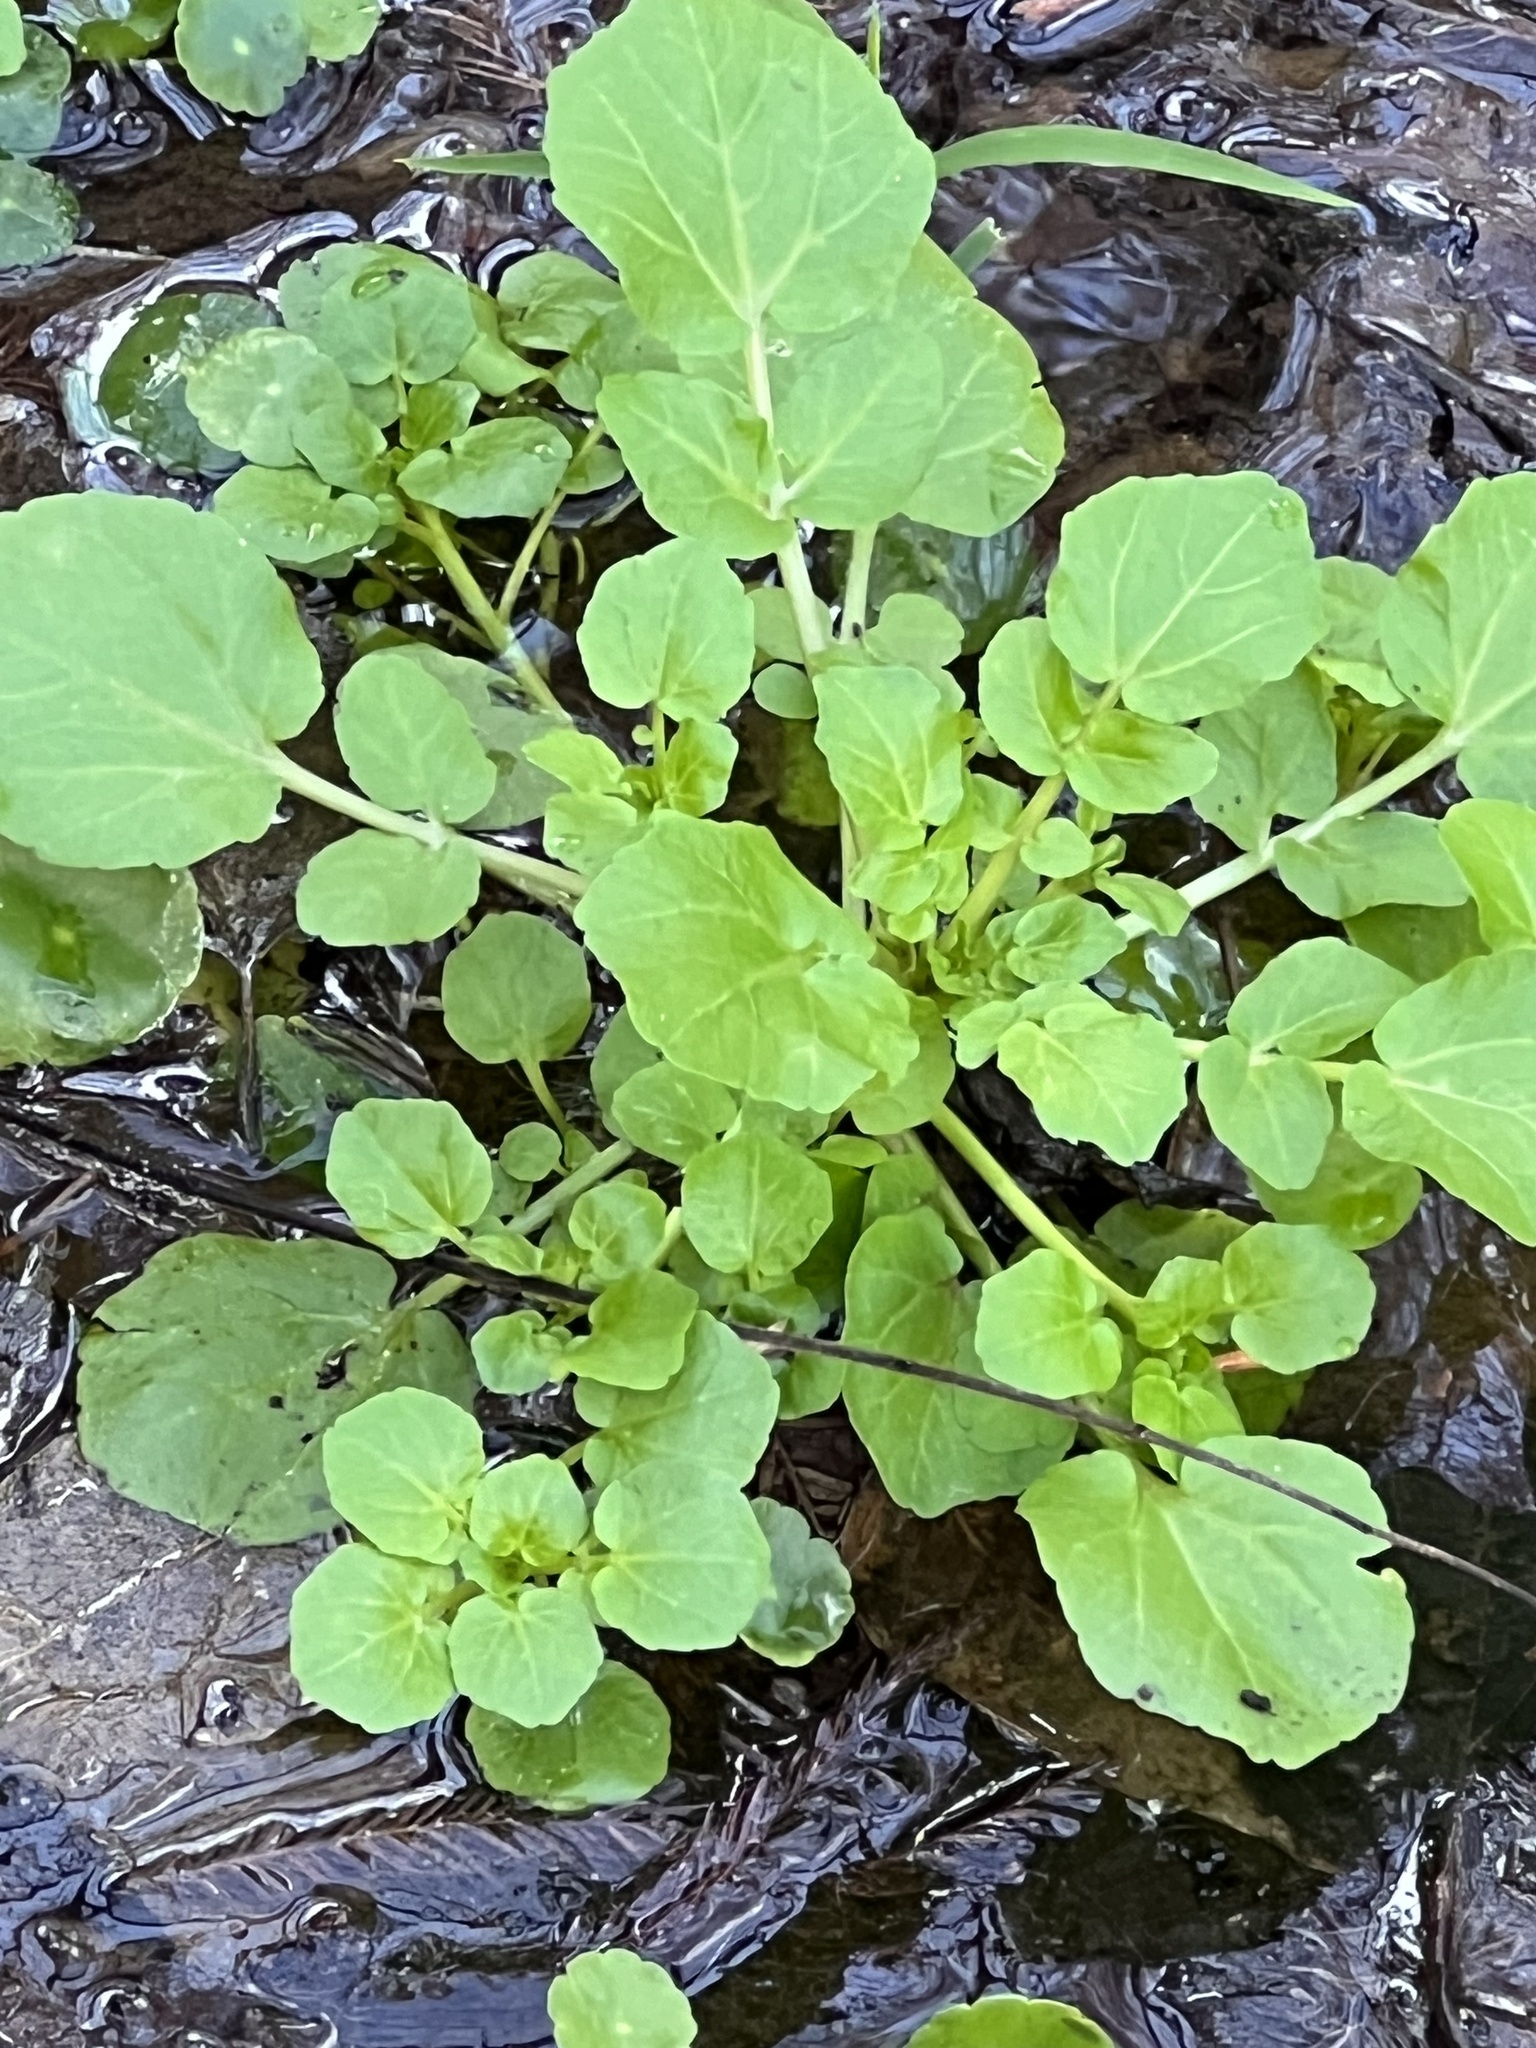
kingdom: Plantae
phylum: Tracheophyta
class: Magnoliopsida
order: Brassicales
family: Brassicaceae
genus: Nasturtium
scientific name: Nasturtium officinale
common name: Watercress
